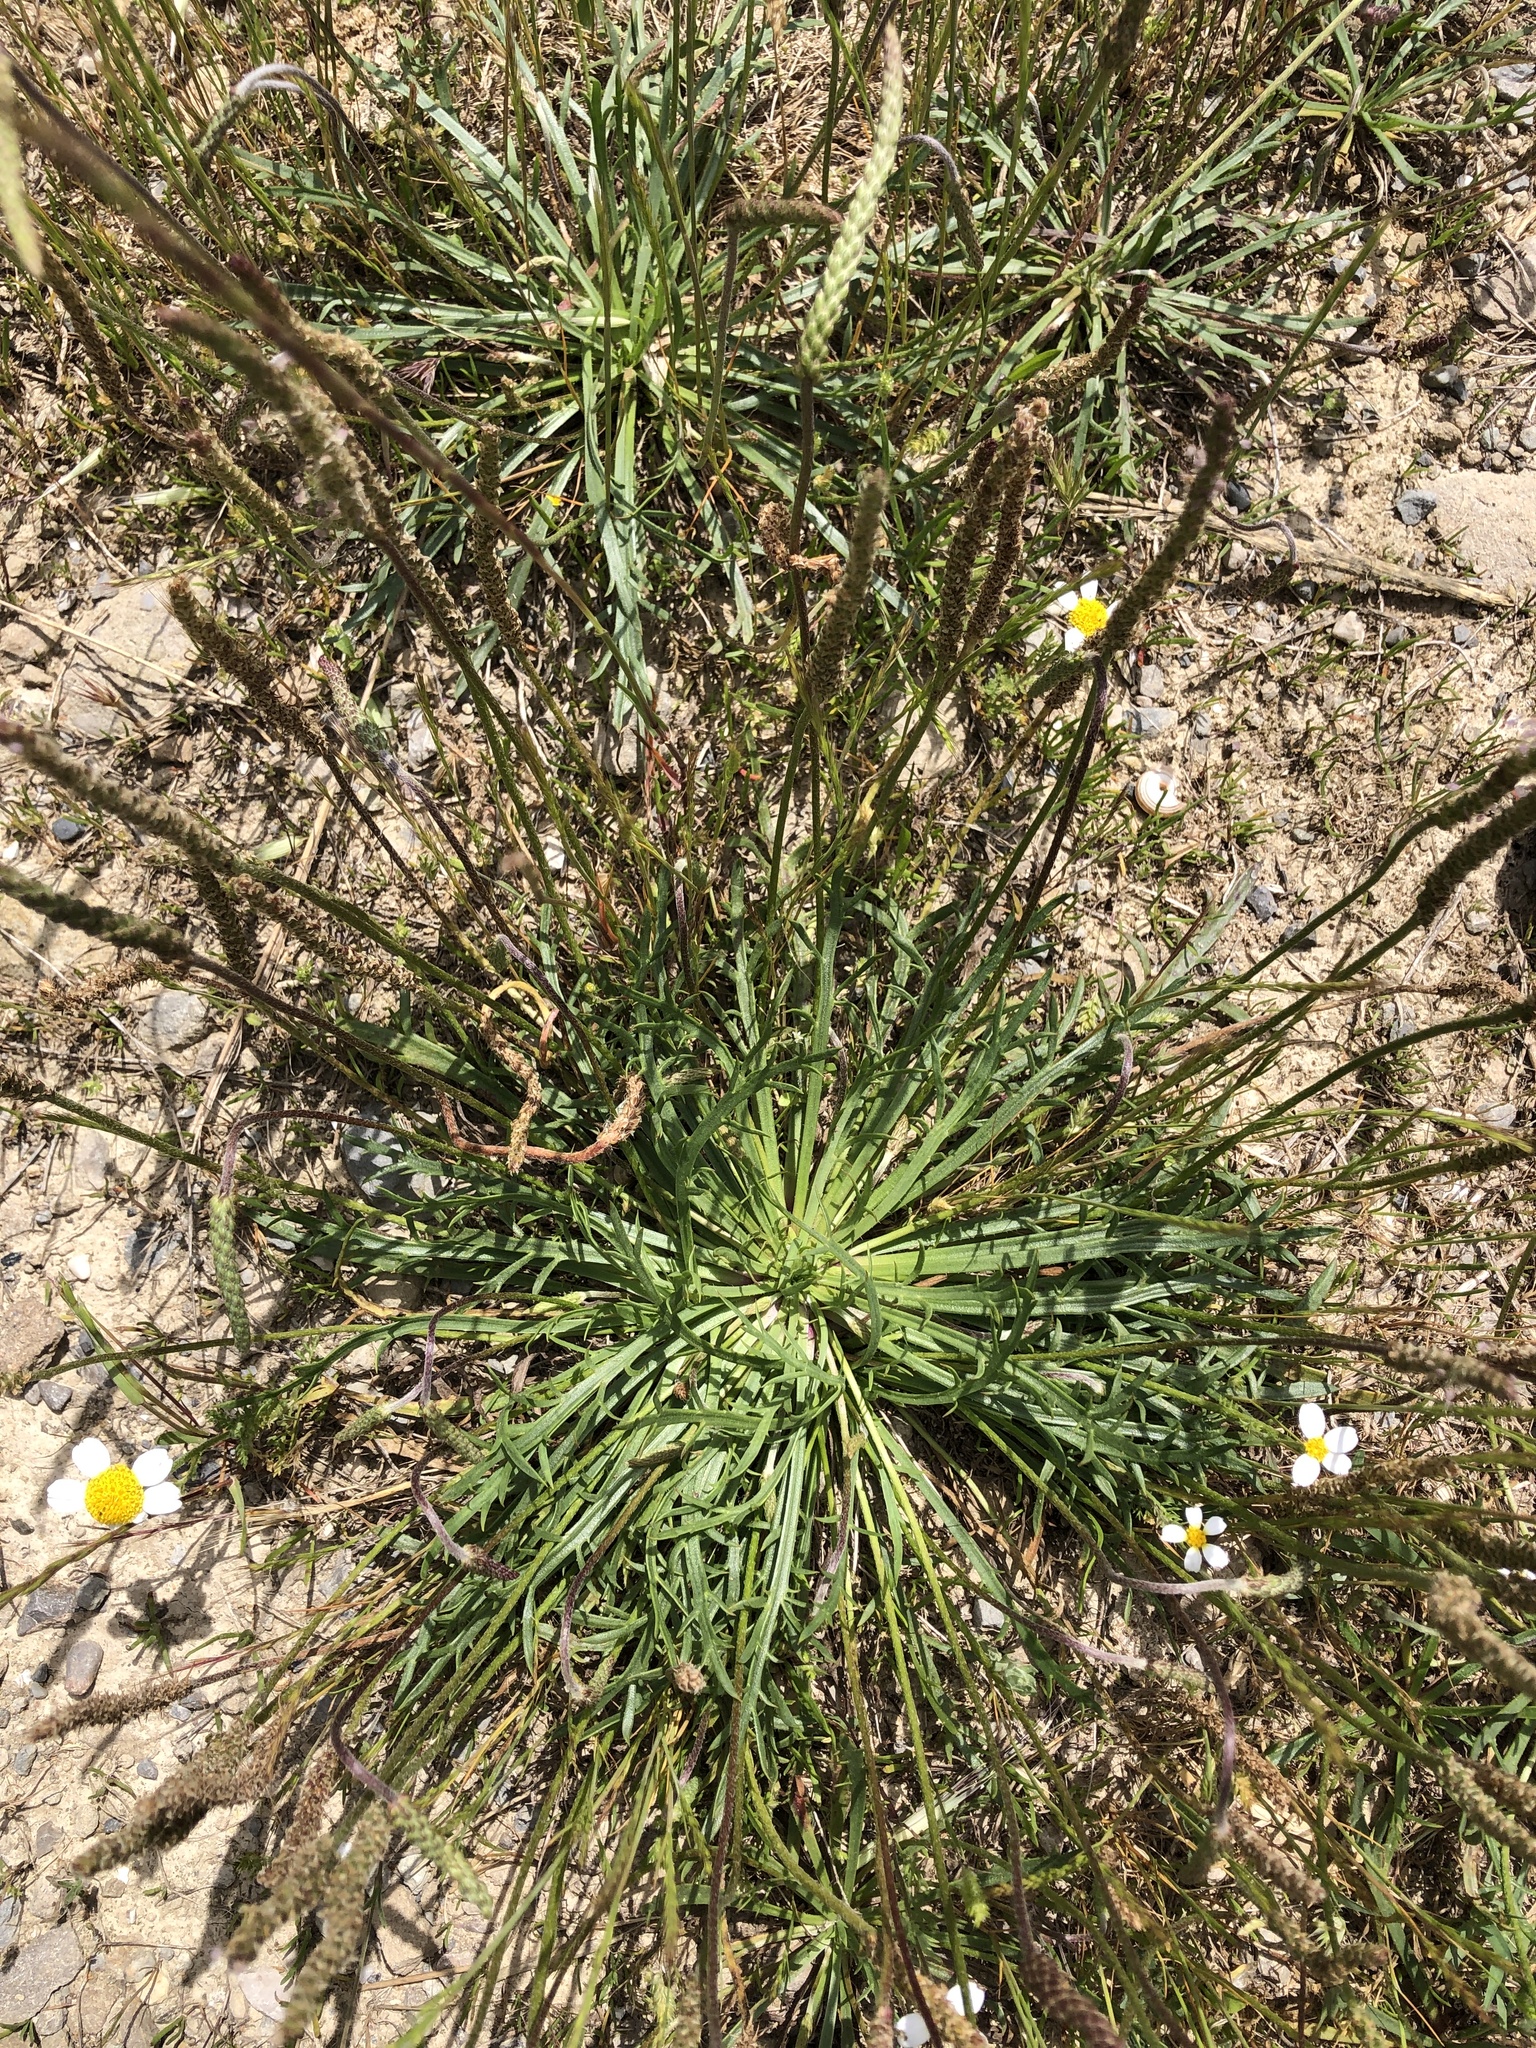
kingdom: Plantae
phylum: Tracheophyta
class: Magnoliopsida
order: Lamiales
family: Plantaginaceae
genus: Plantago
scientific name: Plantago coronopus
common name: Buck's-horn plantain
